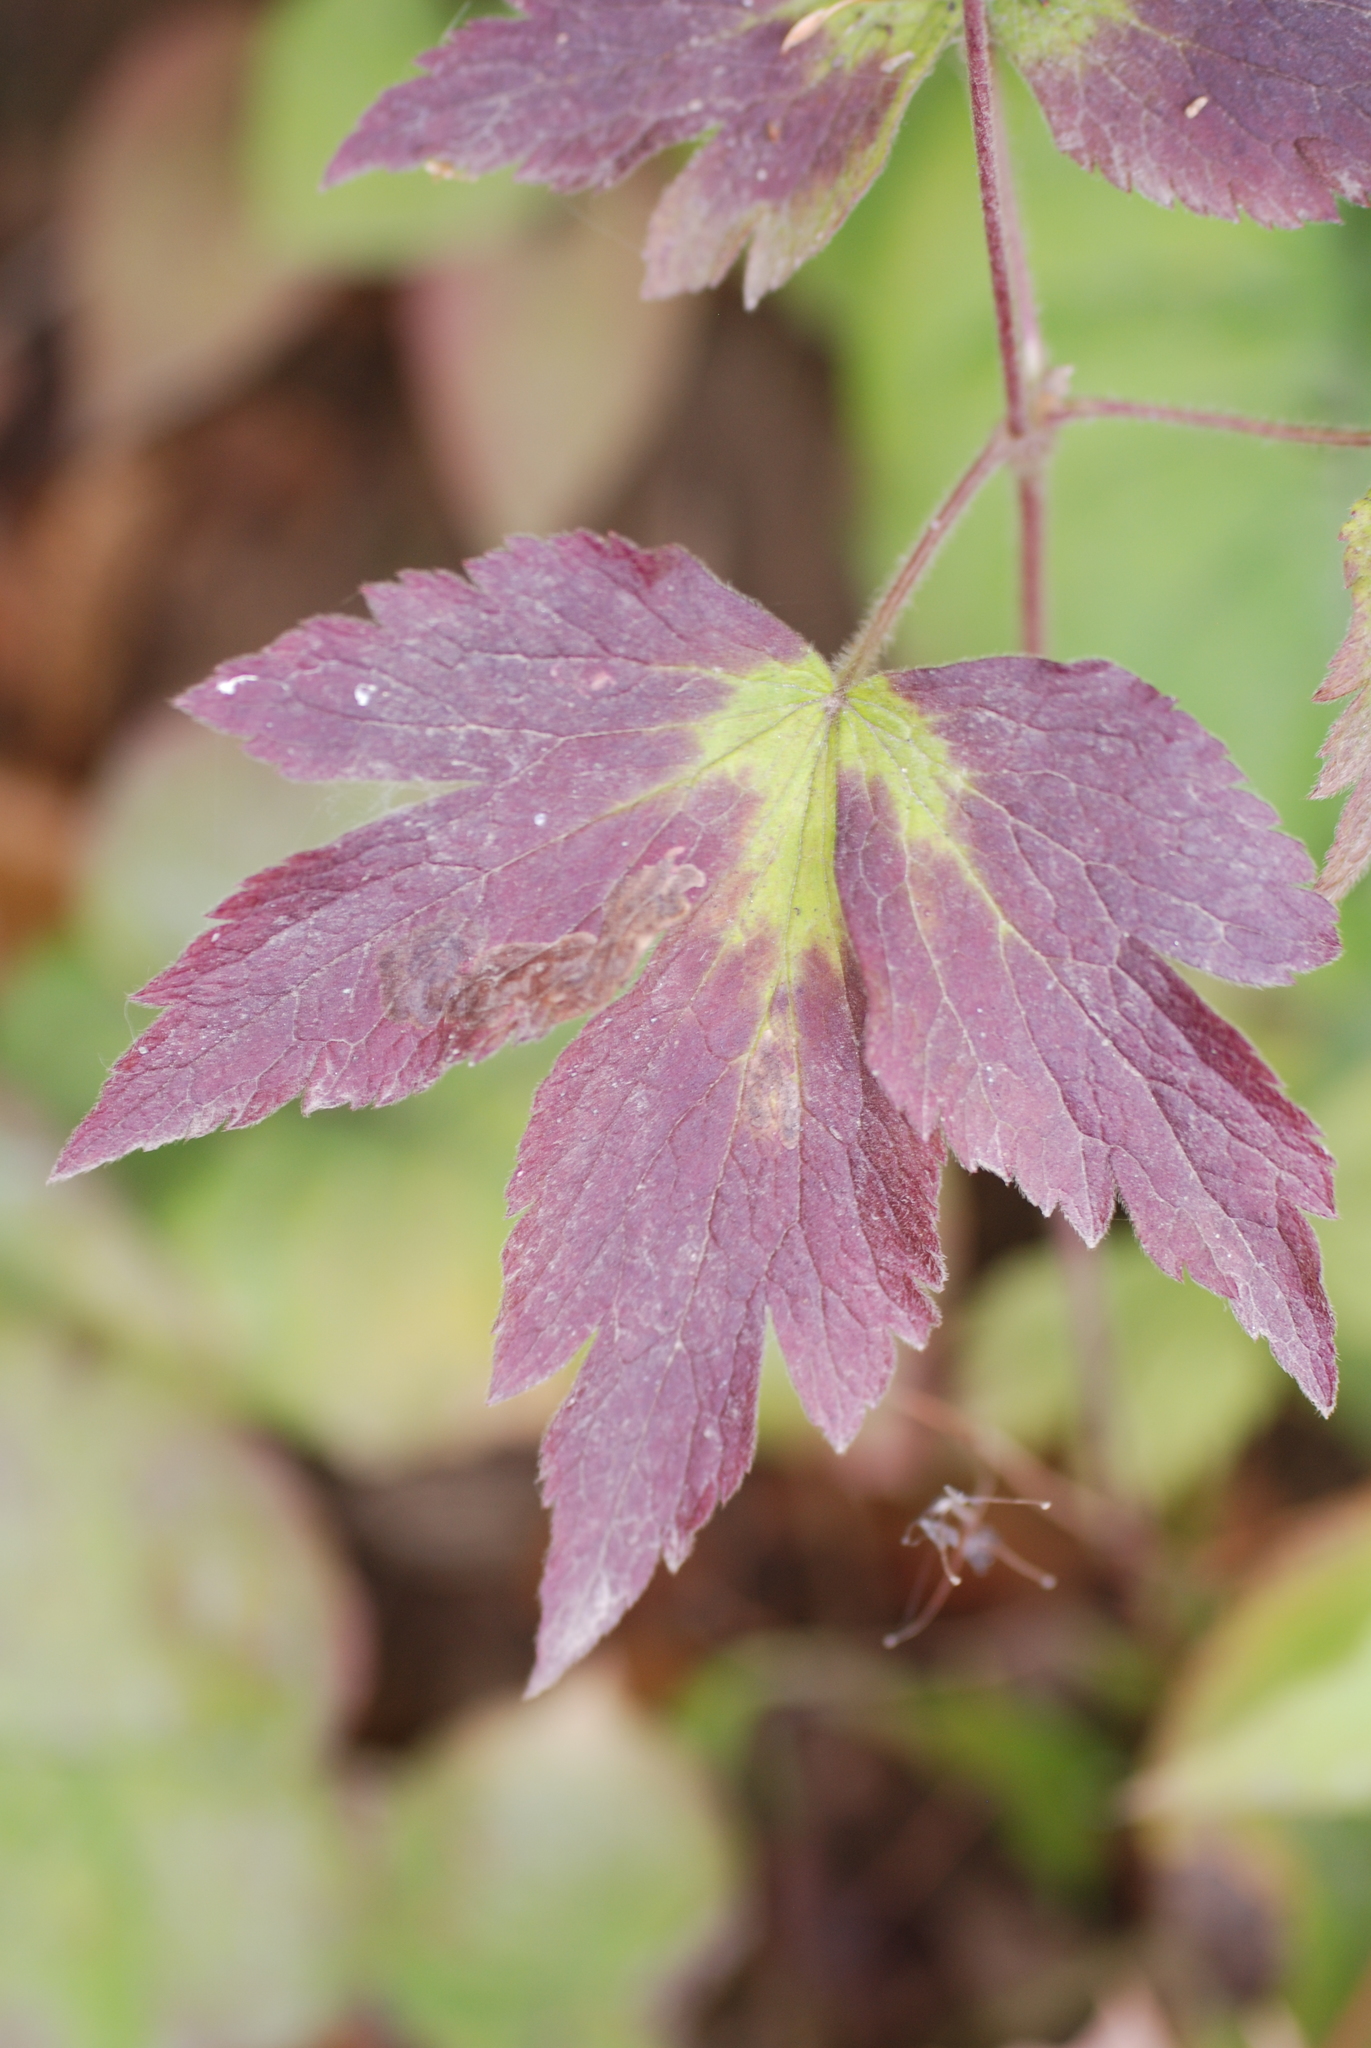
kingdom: Plantae
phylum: Tracheophyta
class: Magnoliopsida
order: Ranunculales
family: Ranunculaceae
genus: Anemone
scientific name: Anemone virginiana
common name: Tall anemone
